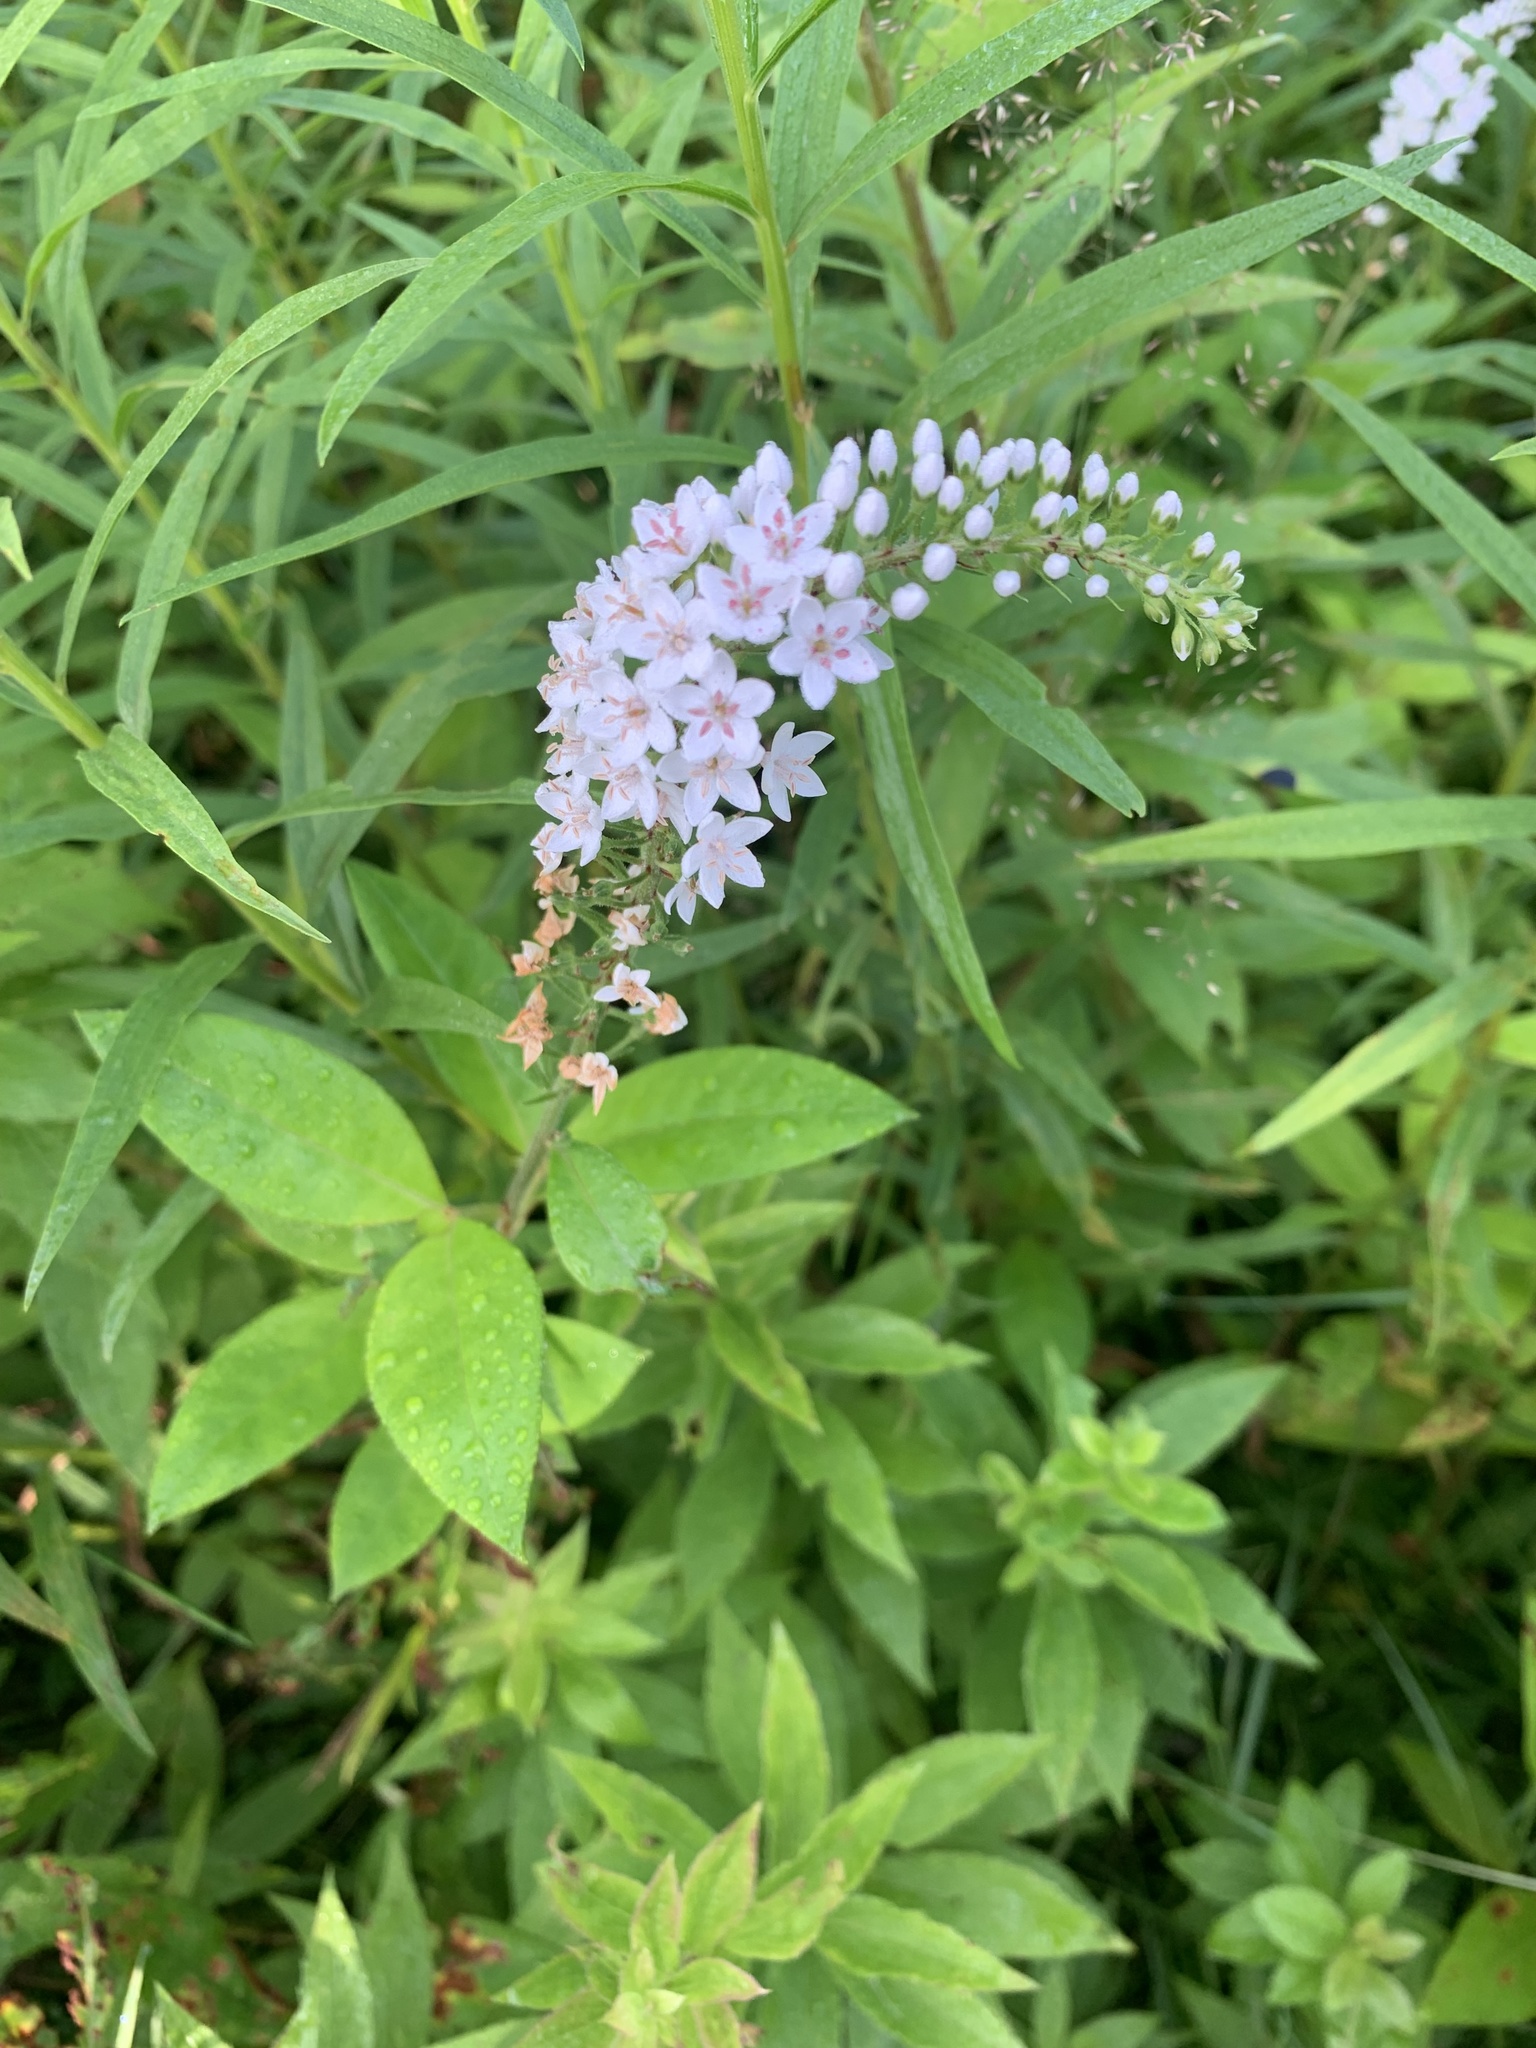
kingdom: Plantae
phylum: Tracheophyta
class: Magnoliopsida
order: Ericales
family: Primulaceae
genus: Lysimachia
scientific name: Lysimachia clethroides
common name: Gooseneck loosestrife
